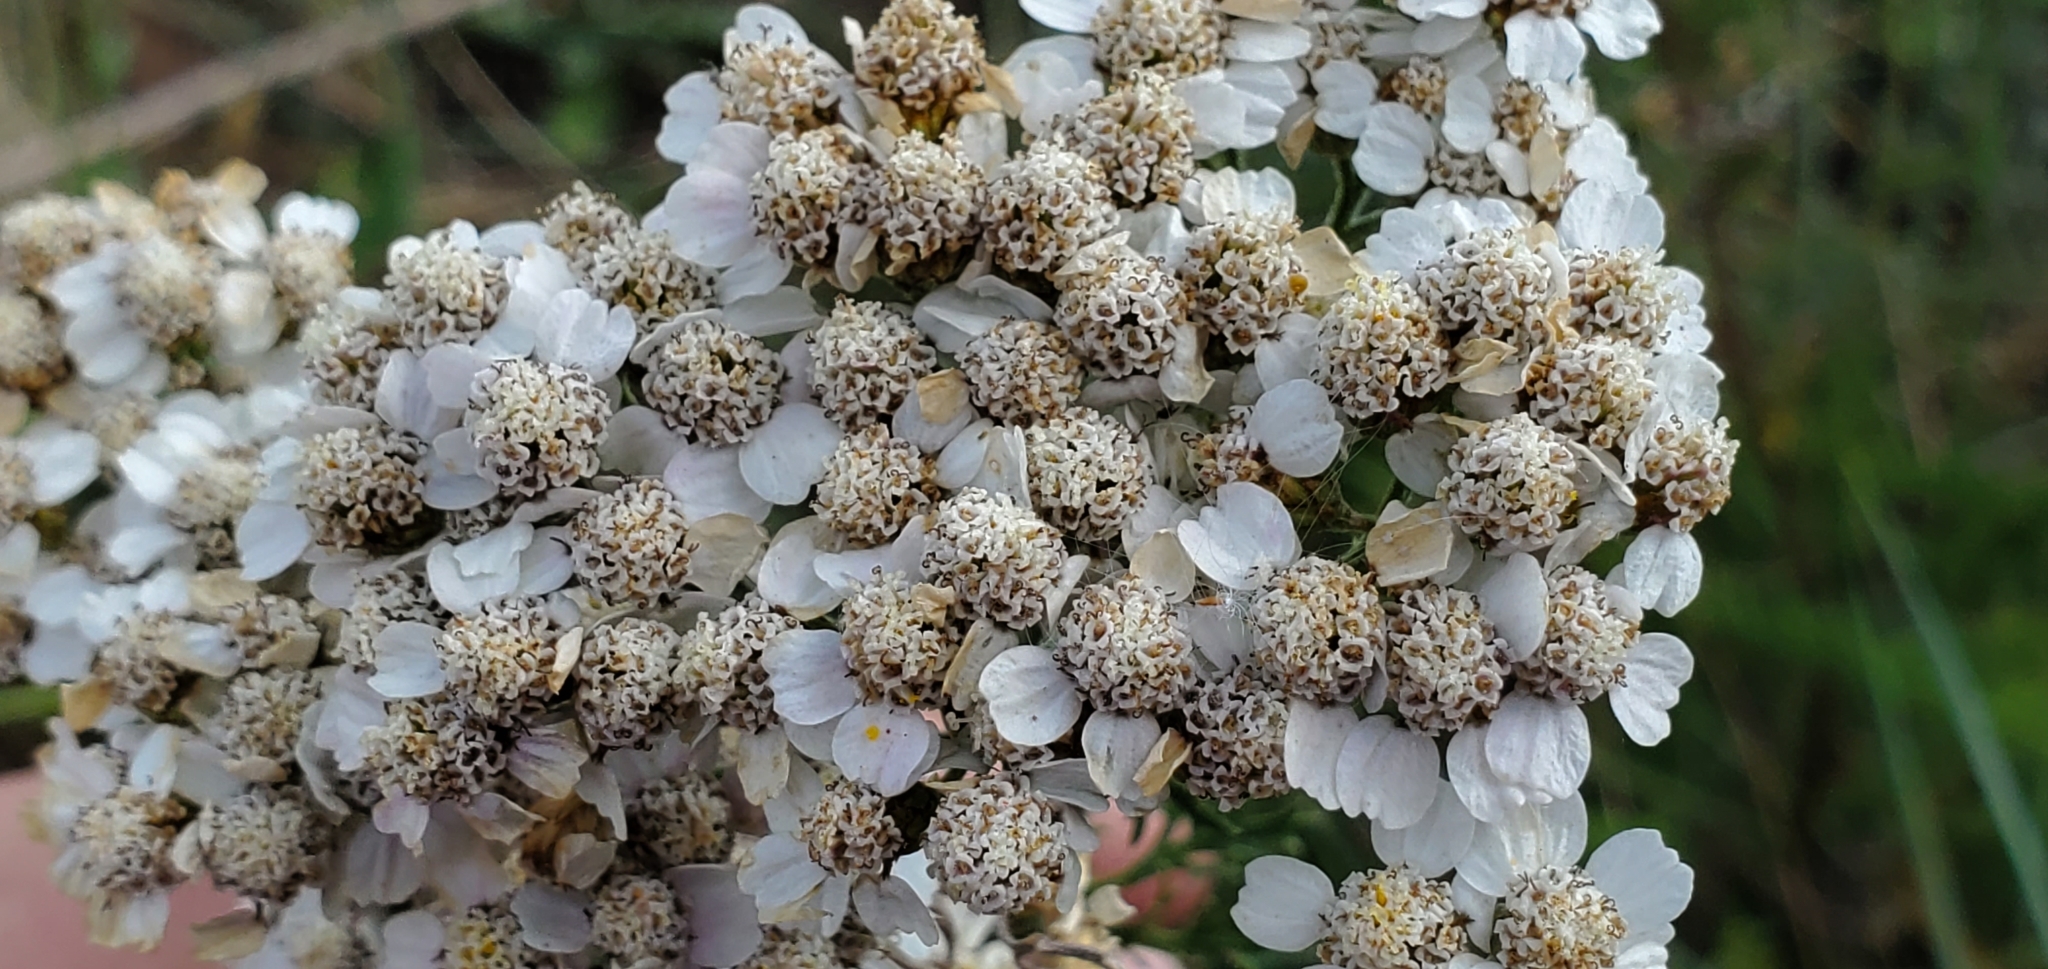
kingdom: Plantae
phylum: Tracheophyta
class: Magnoliopsida
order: Asterales
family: Asteraceae
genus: Achillea
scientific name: Achillea millefolium
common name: Yarrow
